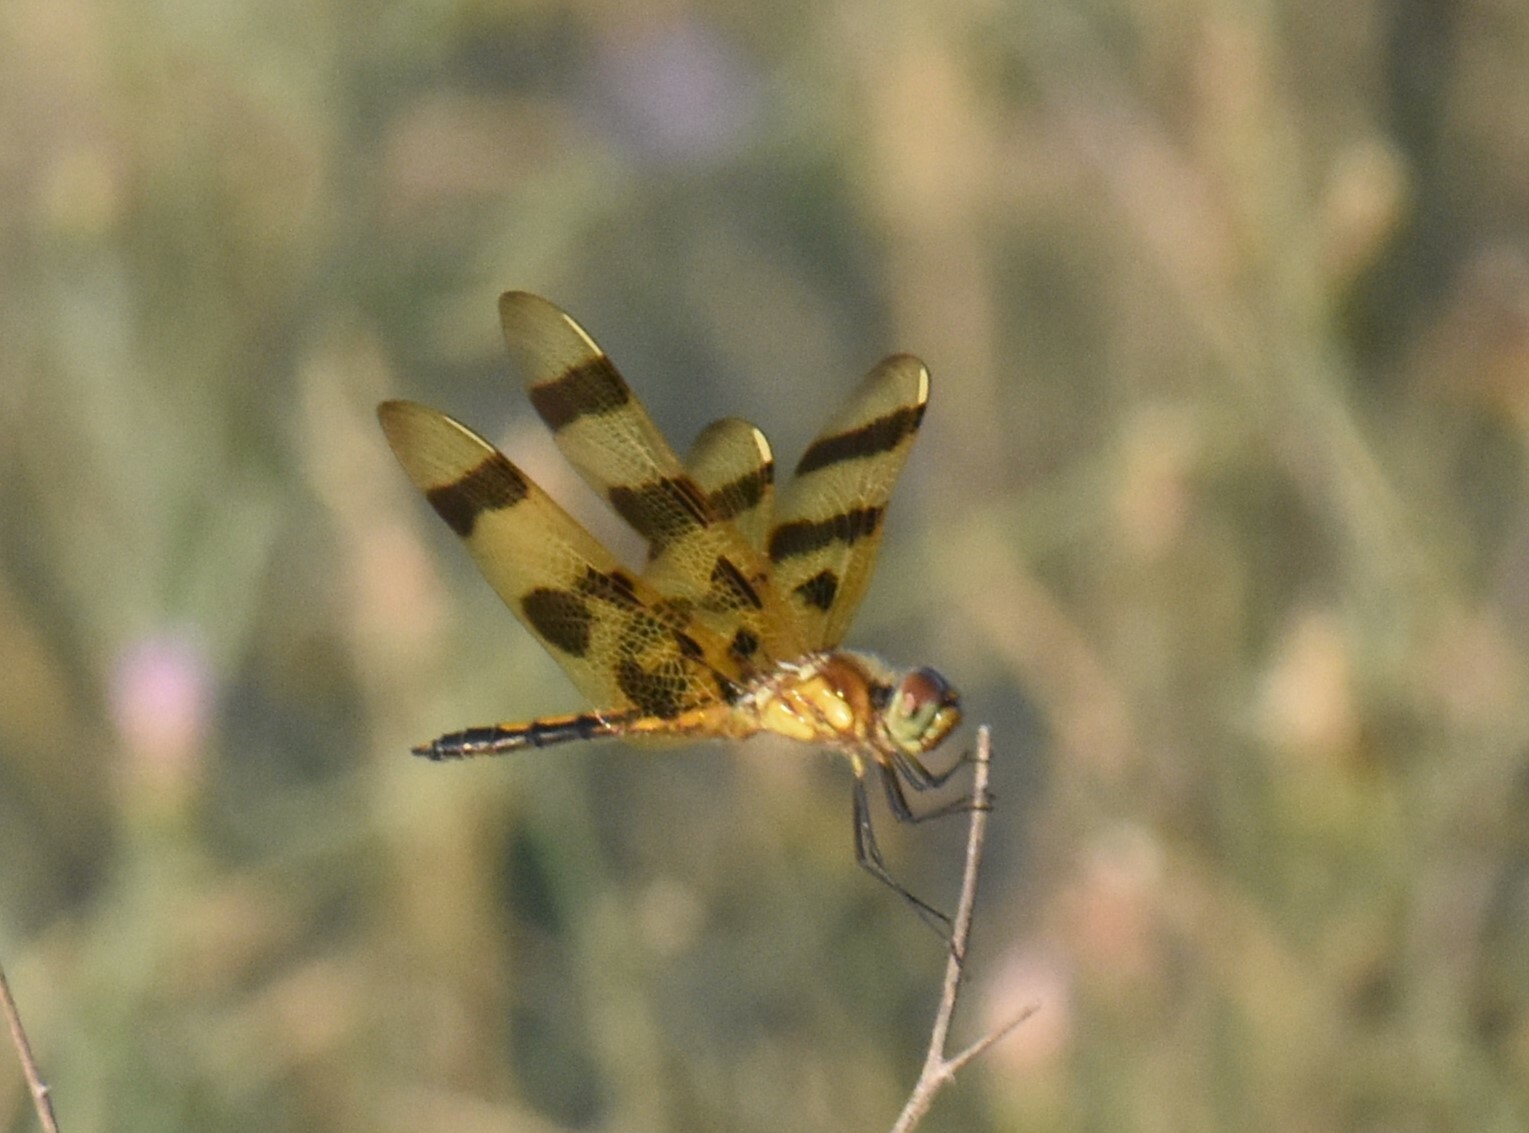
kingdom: Animalia
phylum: Arthropoda
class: Insecta
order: Odonata
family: Libellulidae
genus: Celithemis
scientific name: Celithemis eponina
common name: Halloween pennant
